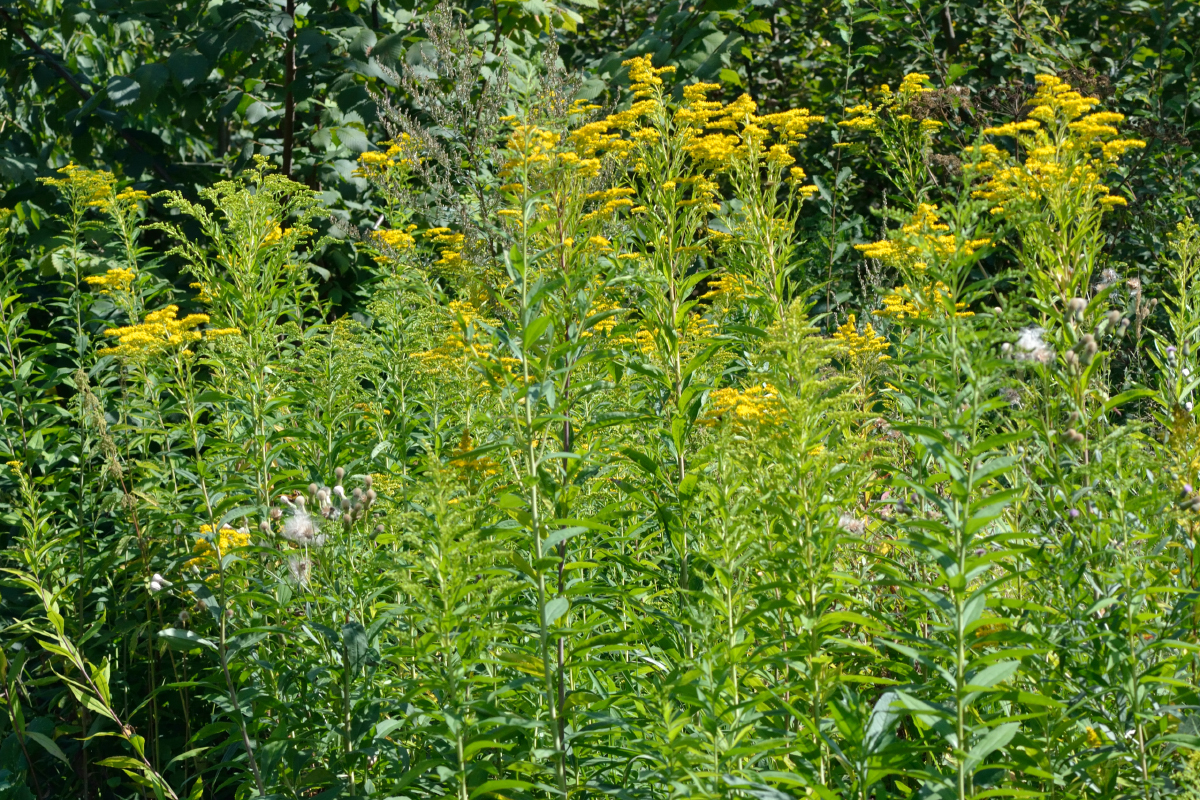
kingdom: Plantae
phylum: Tracheophyta
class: Magnoliopsida
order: Asterales
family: Asteraceae
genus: Solidago
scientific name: Solidago gigantea
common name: Giant goldenrod
